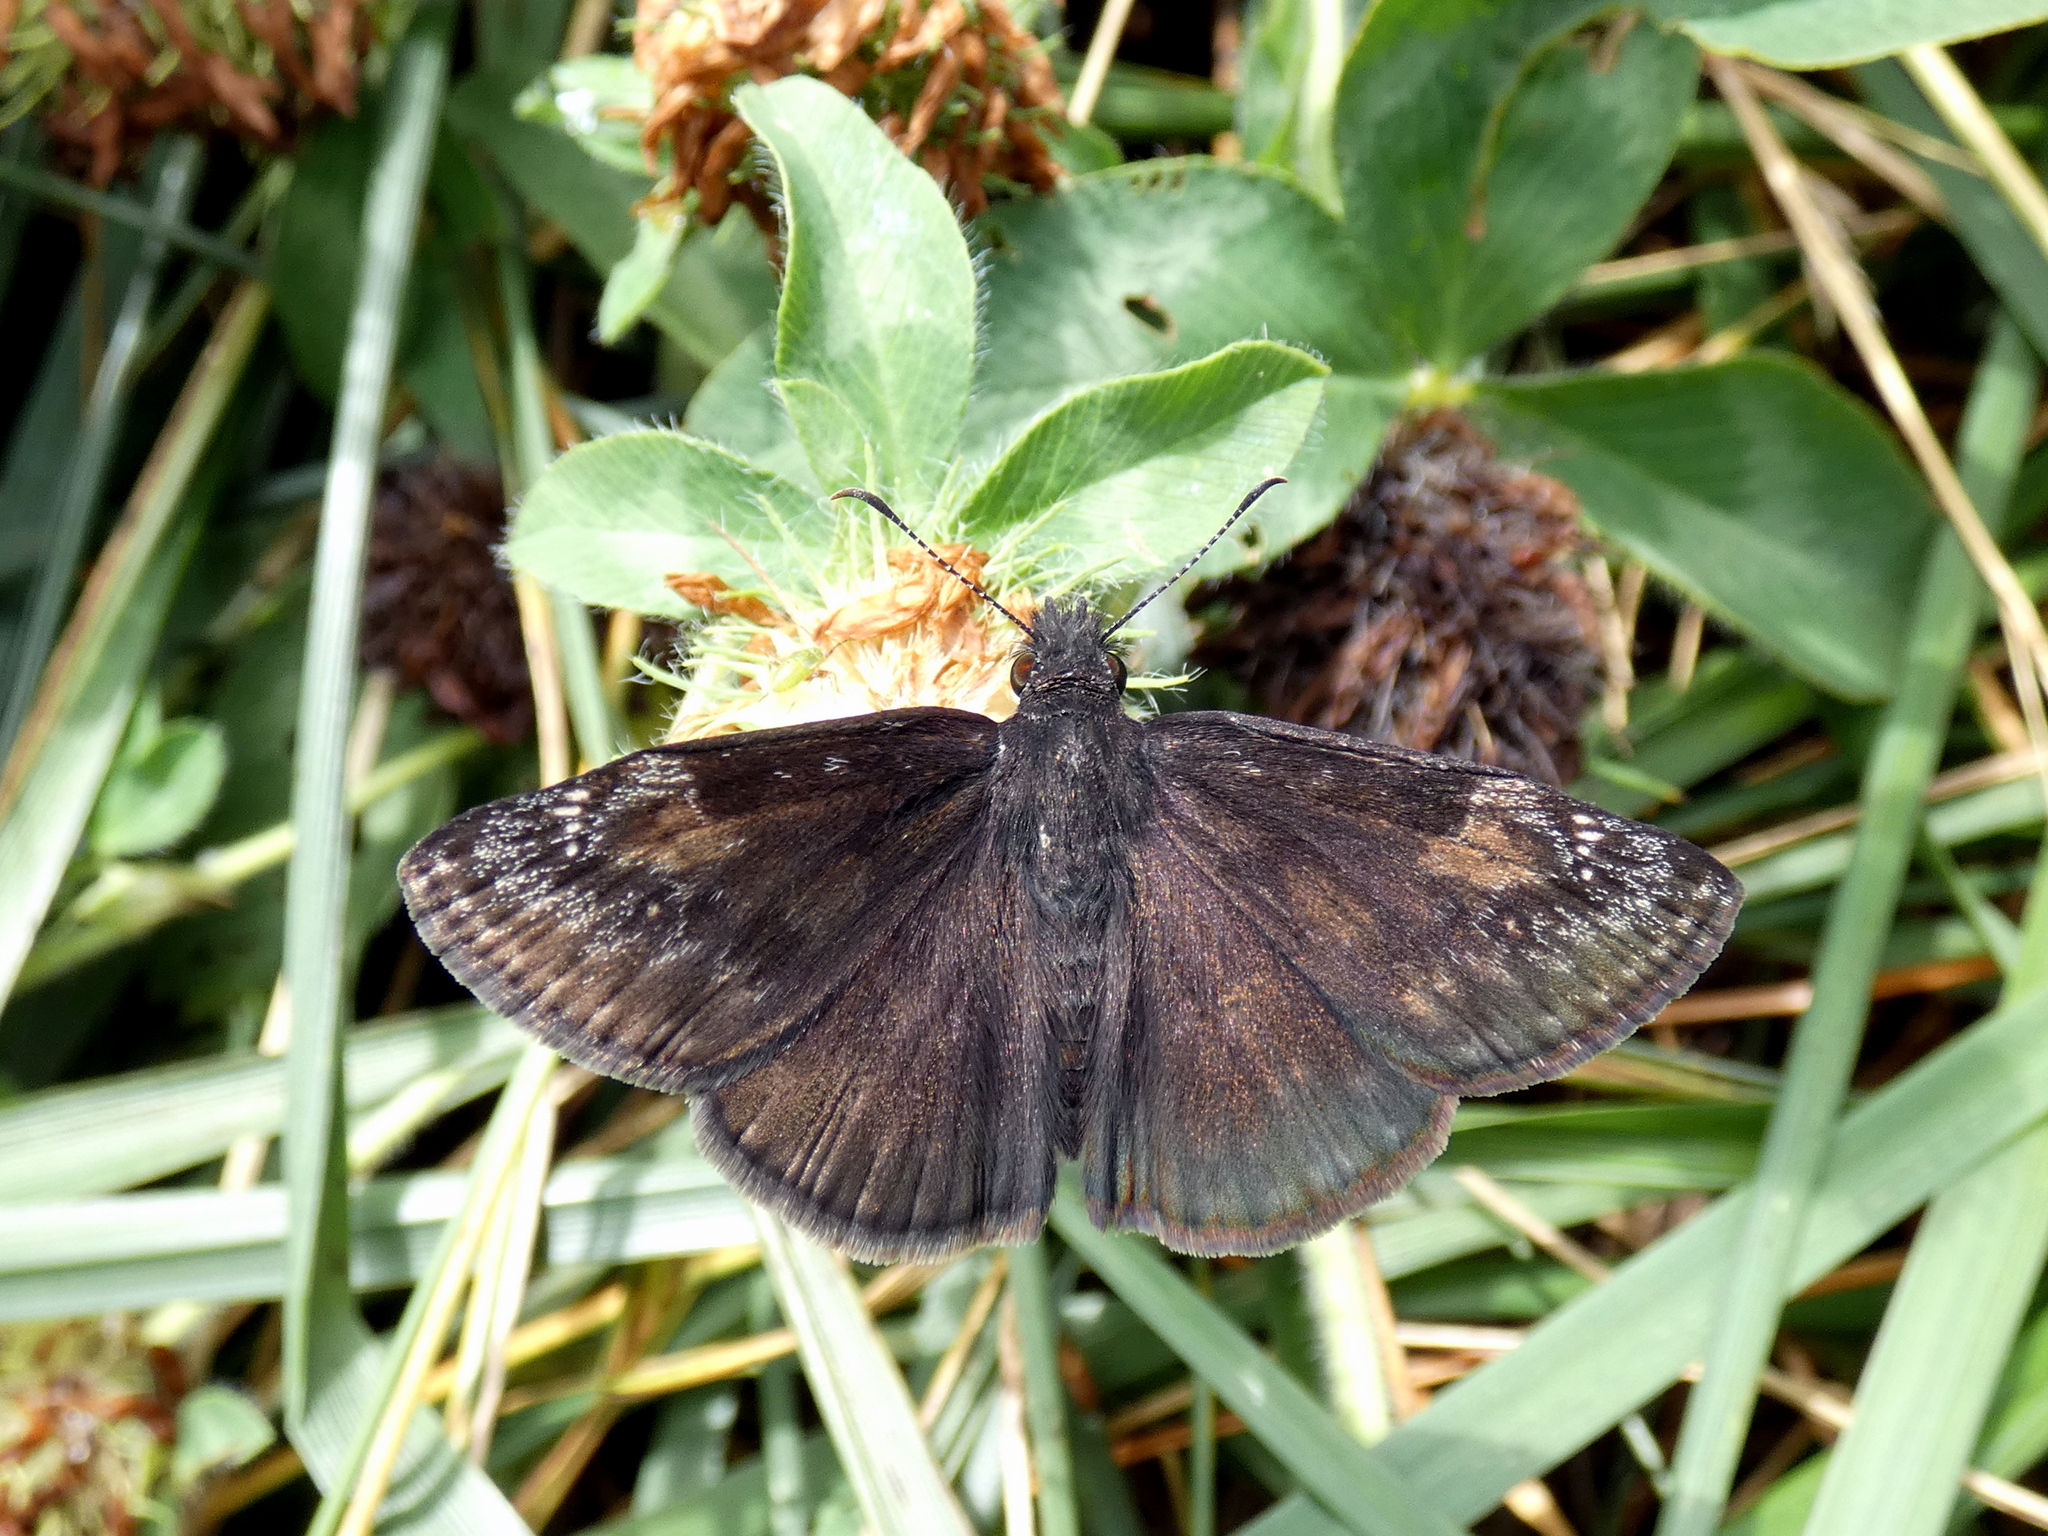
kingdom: Animalia
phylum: Arthropoda
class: Insecta
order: Lepidoptera
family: Hesperiidae
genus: Erynnis
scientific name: Erynnis baptisiae
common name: Wild indigo duskywing
